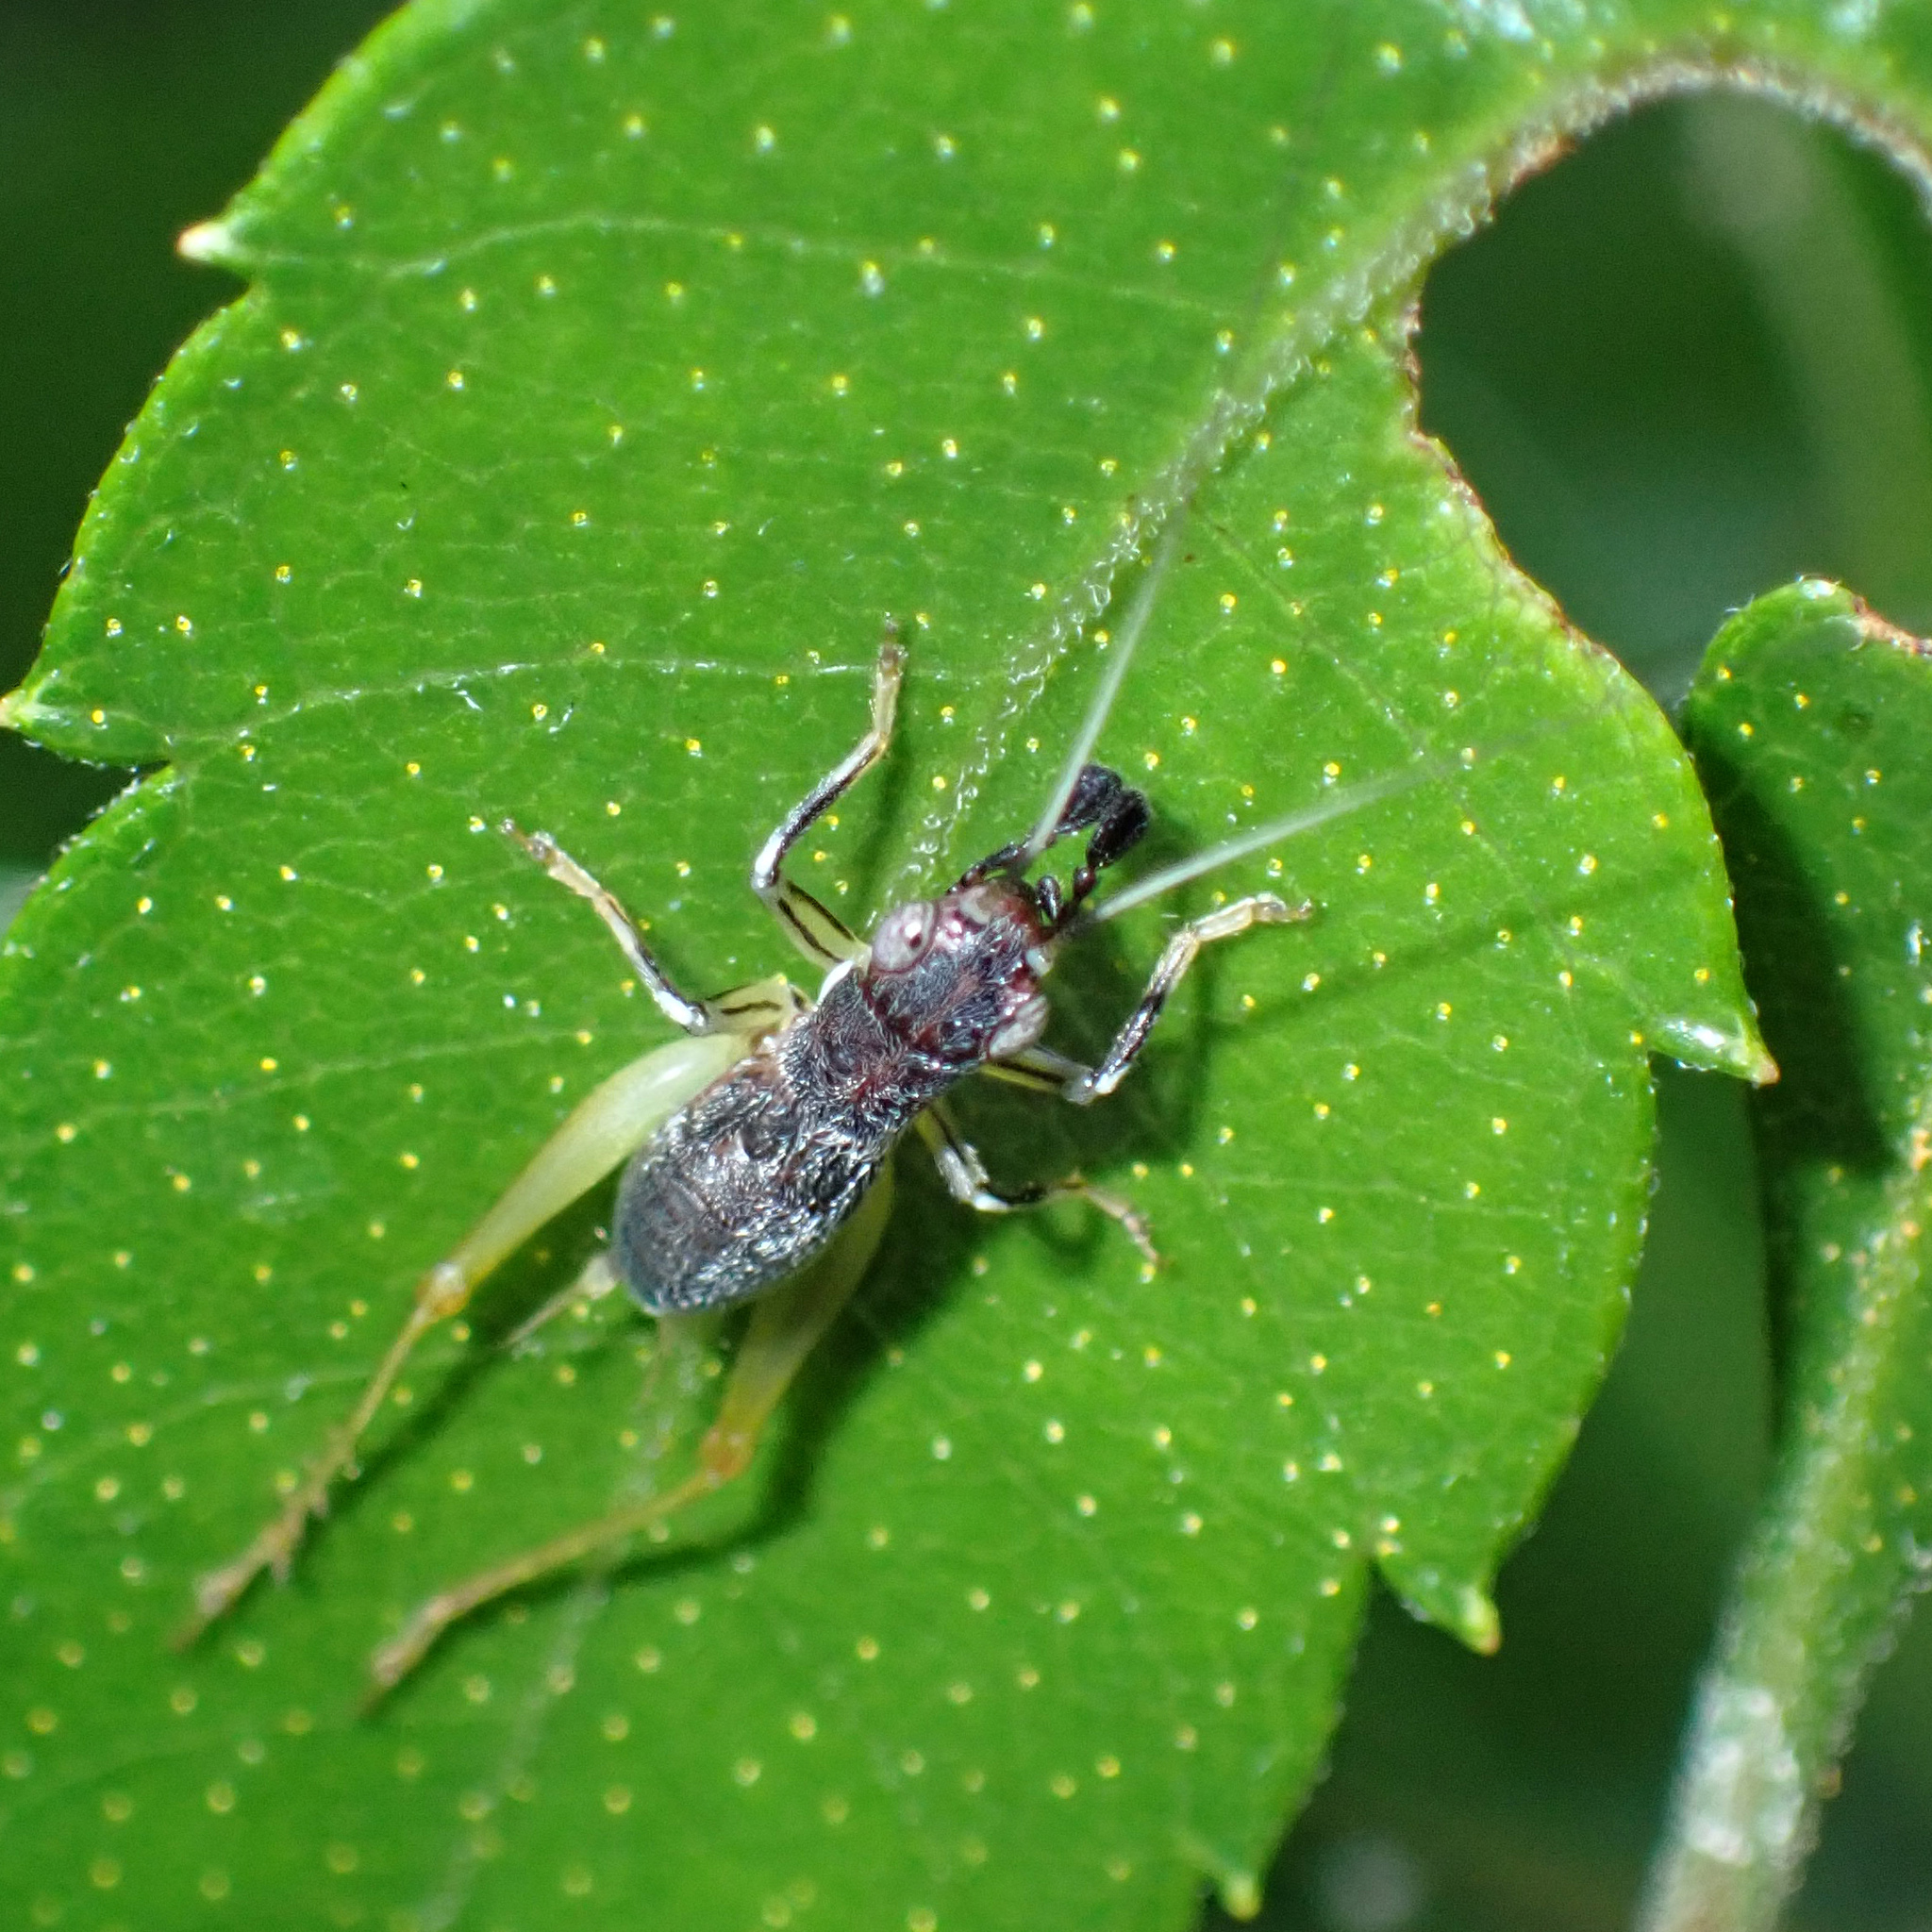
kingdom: Animalia
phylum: Arthropoda
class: Insecta
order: Orthoptera
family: Trigonidiidae
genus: Phyllopalpus
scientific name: Phyllopalpus pulchellus
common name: Handsome trig
